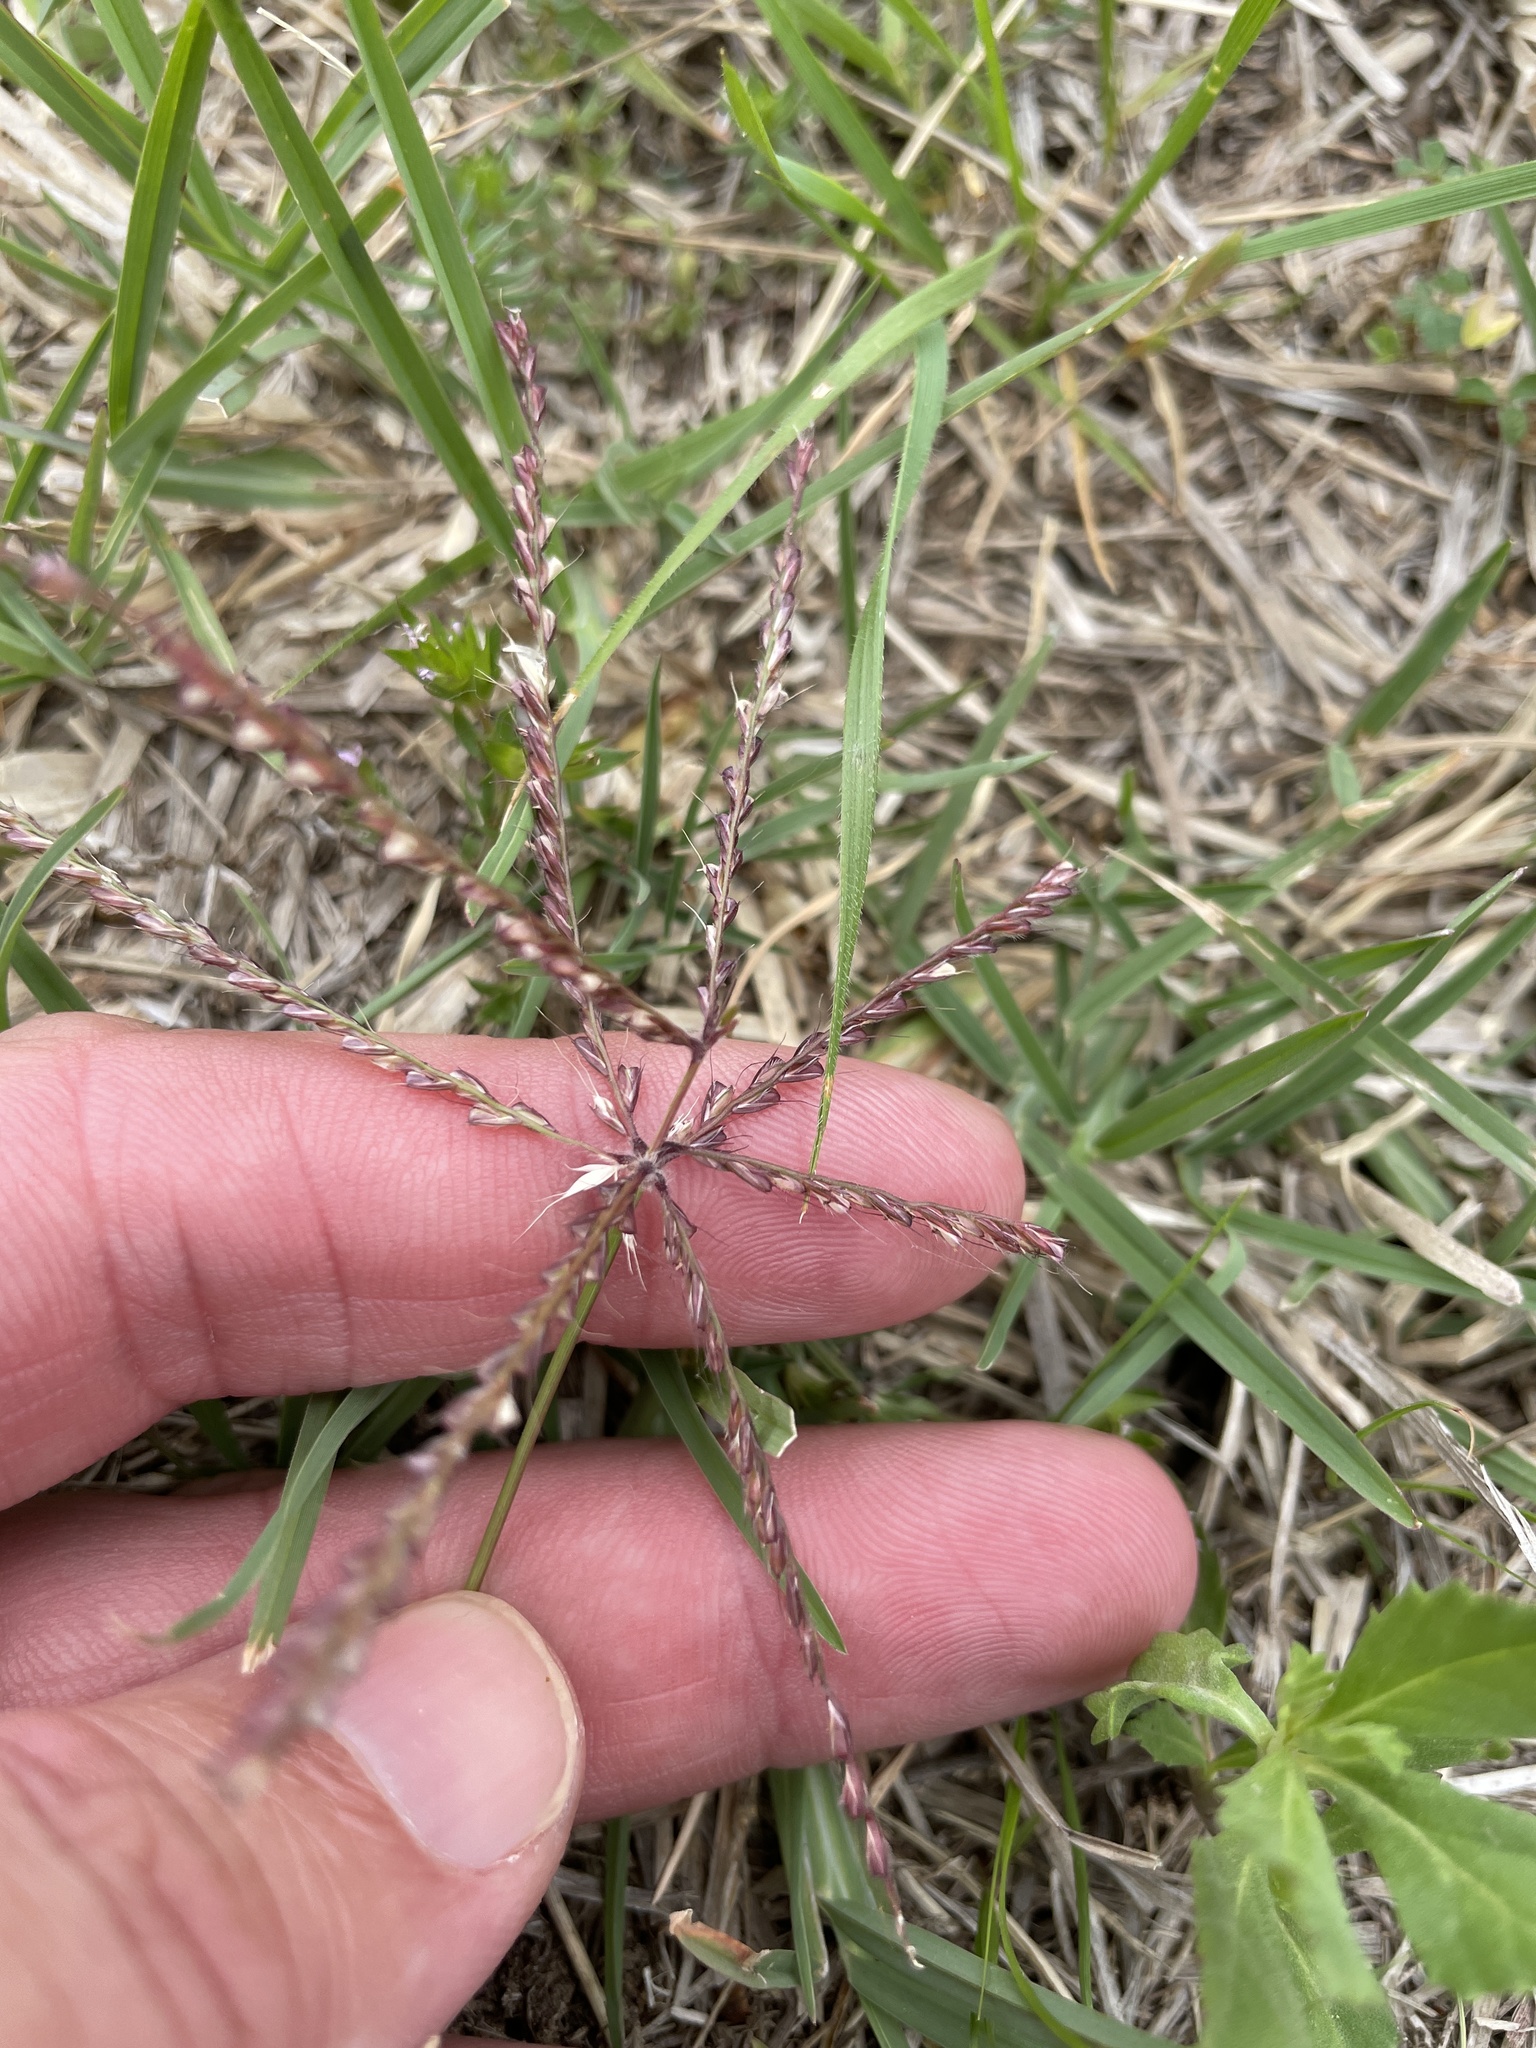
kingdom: Plantae
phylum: Tracheophyta
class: Liliopsida
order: Poales
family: Poaceae
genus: Chloris
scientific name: Chloris verticillata
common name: Tumble windmill grass
